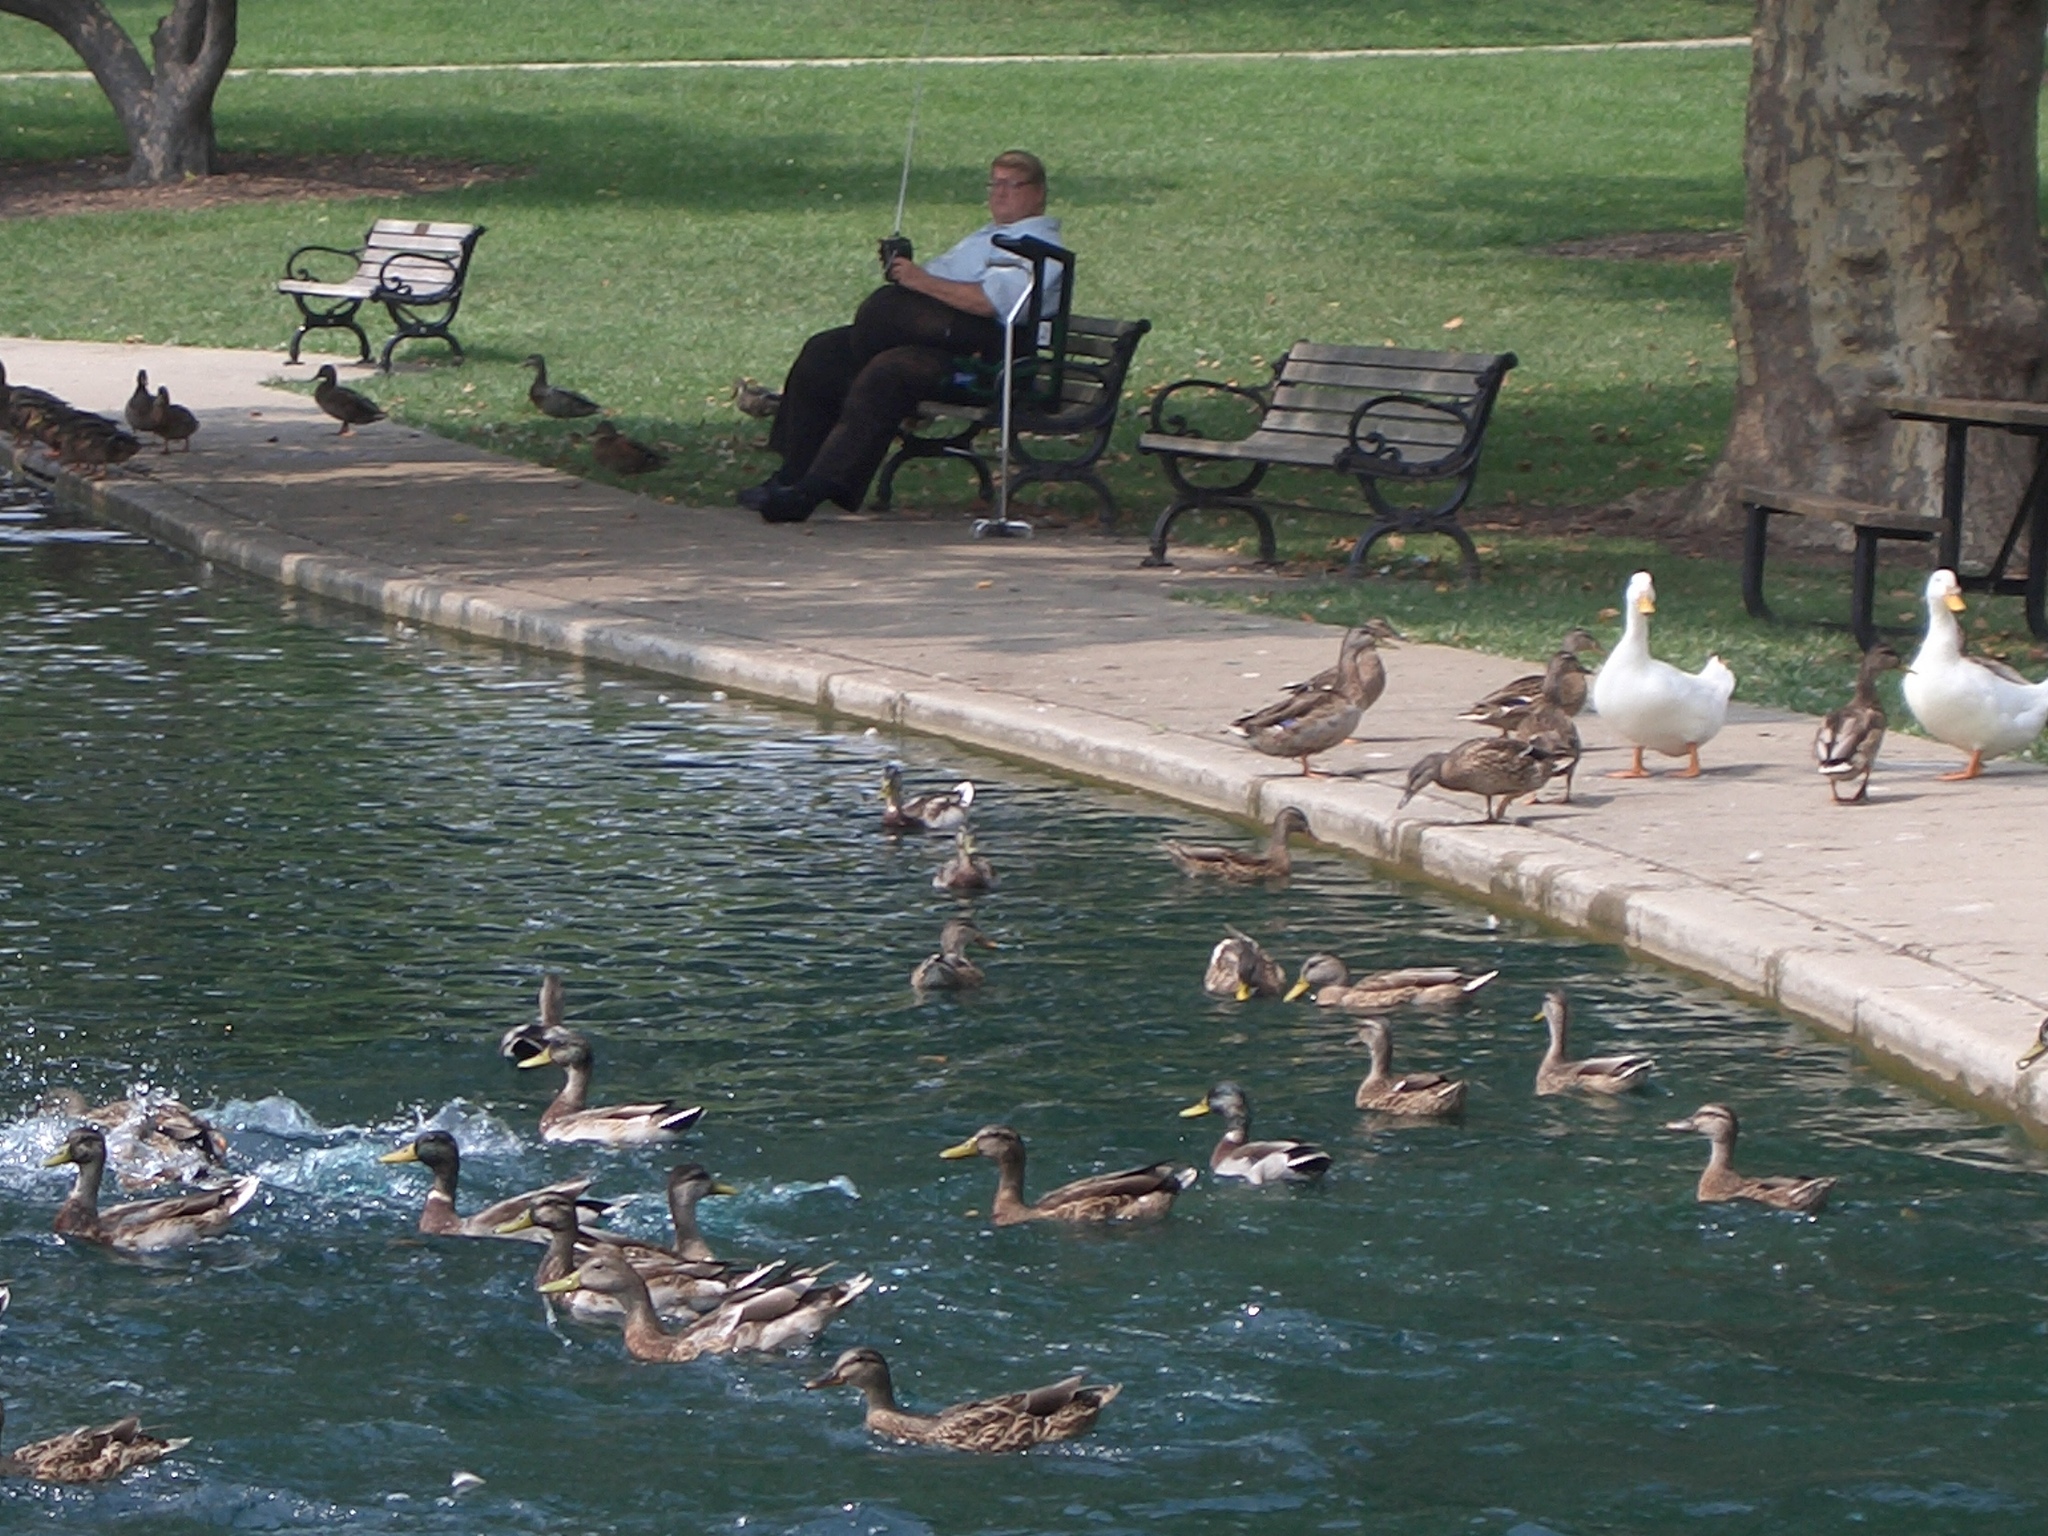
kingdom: Animalia
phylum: Chordata
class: Aves
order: Anseriformes
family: Anatidae
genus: Anas
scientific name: Anas platyrhynchos
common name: Mallard
